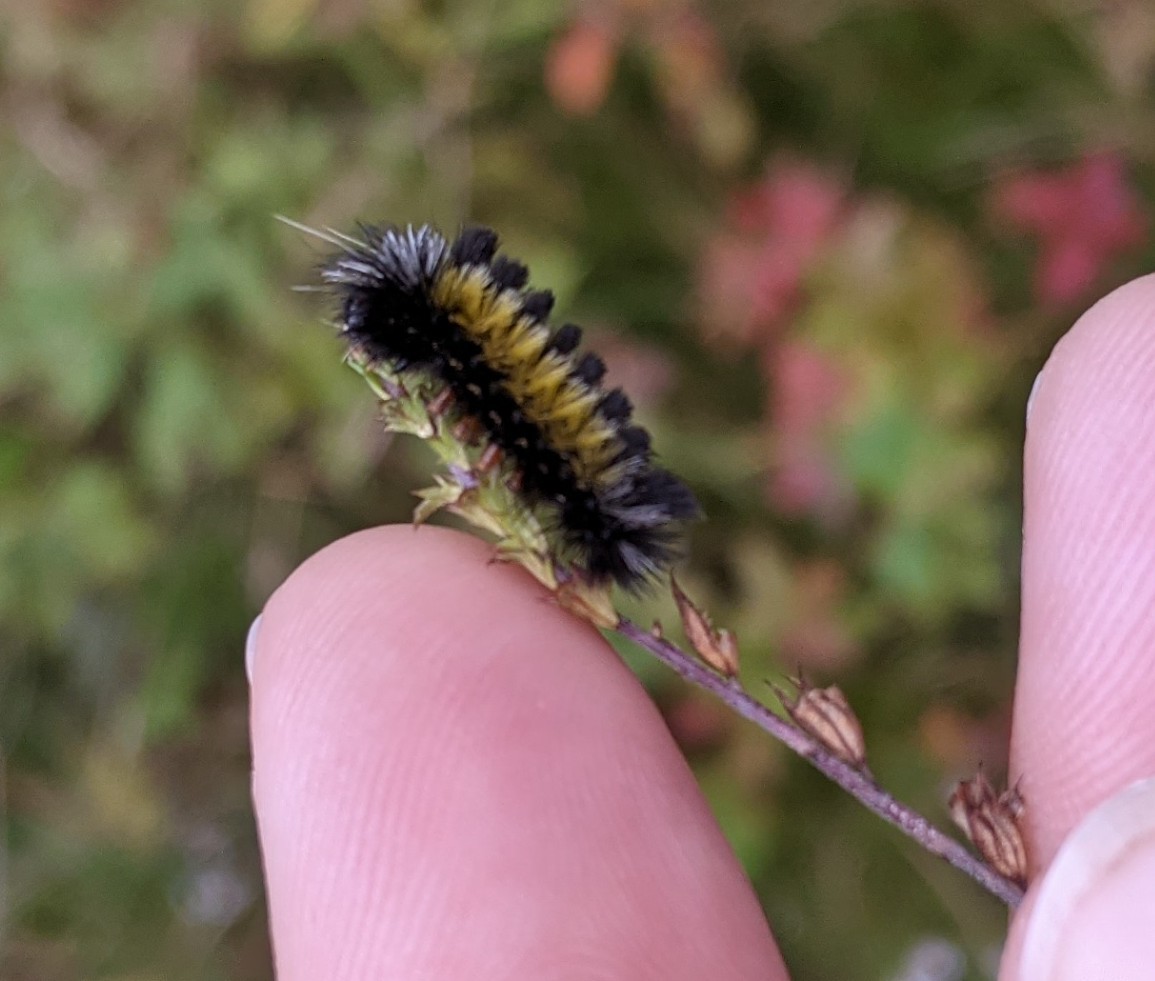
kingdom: Animalia
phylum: Arthropoda
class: Insecta
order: Lepidoptera
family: Erebidae
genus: Ctenucha
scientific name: Ctenucha virginica
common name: Virginia ctenucha moth
